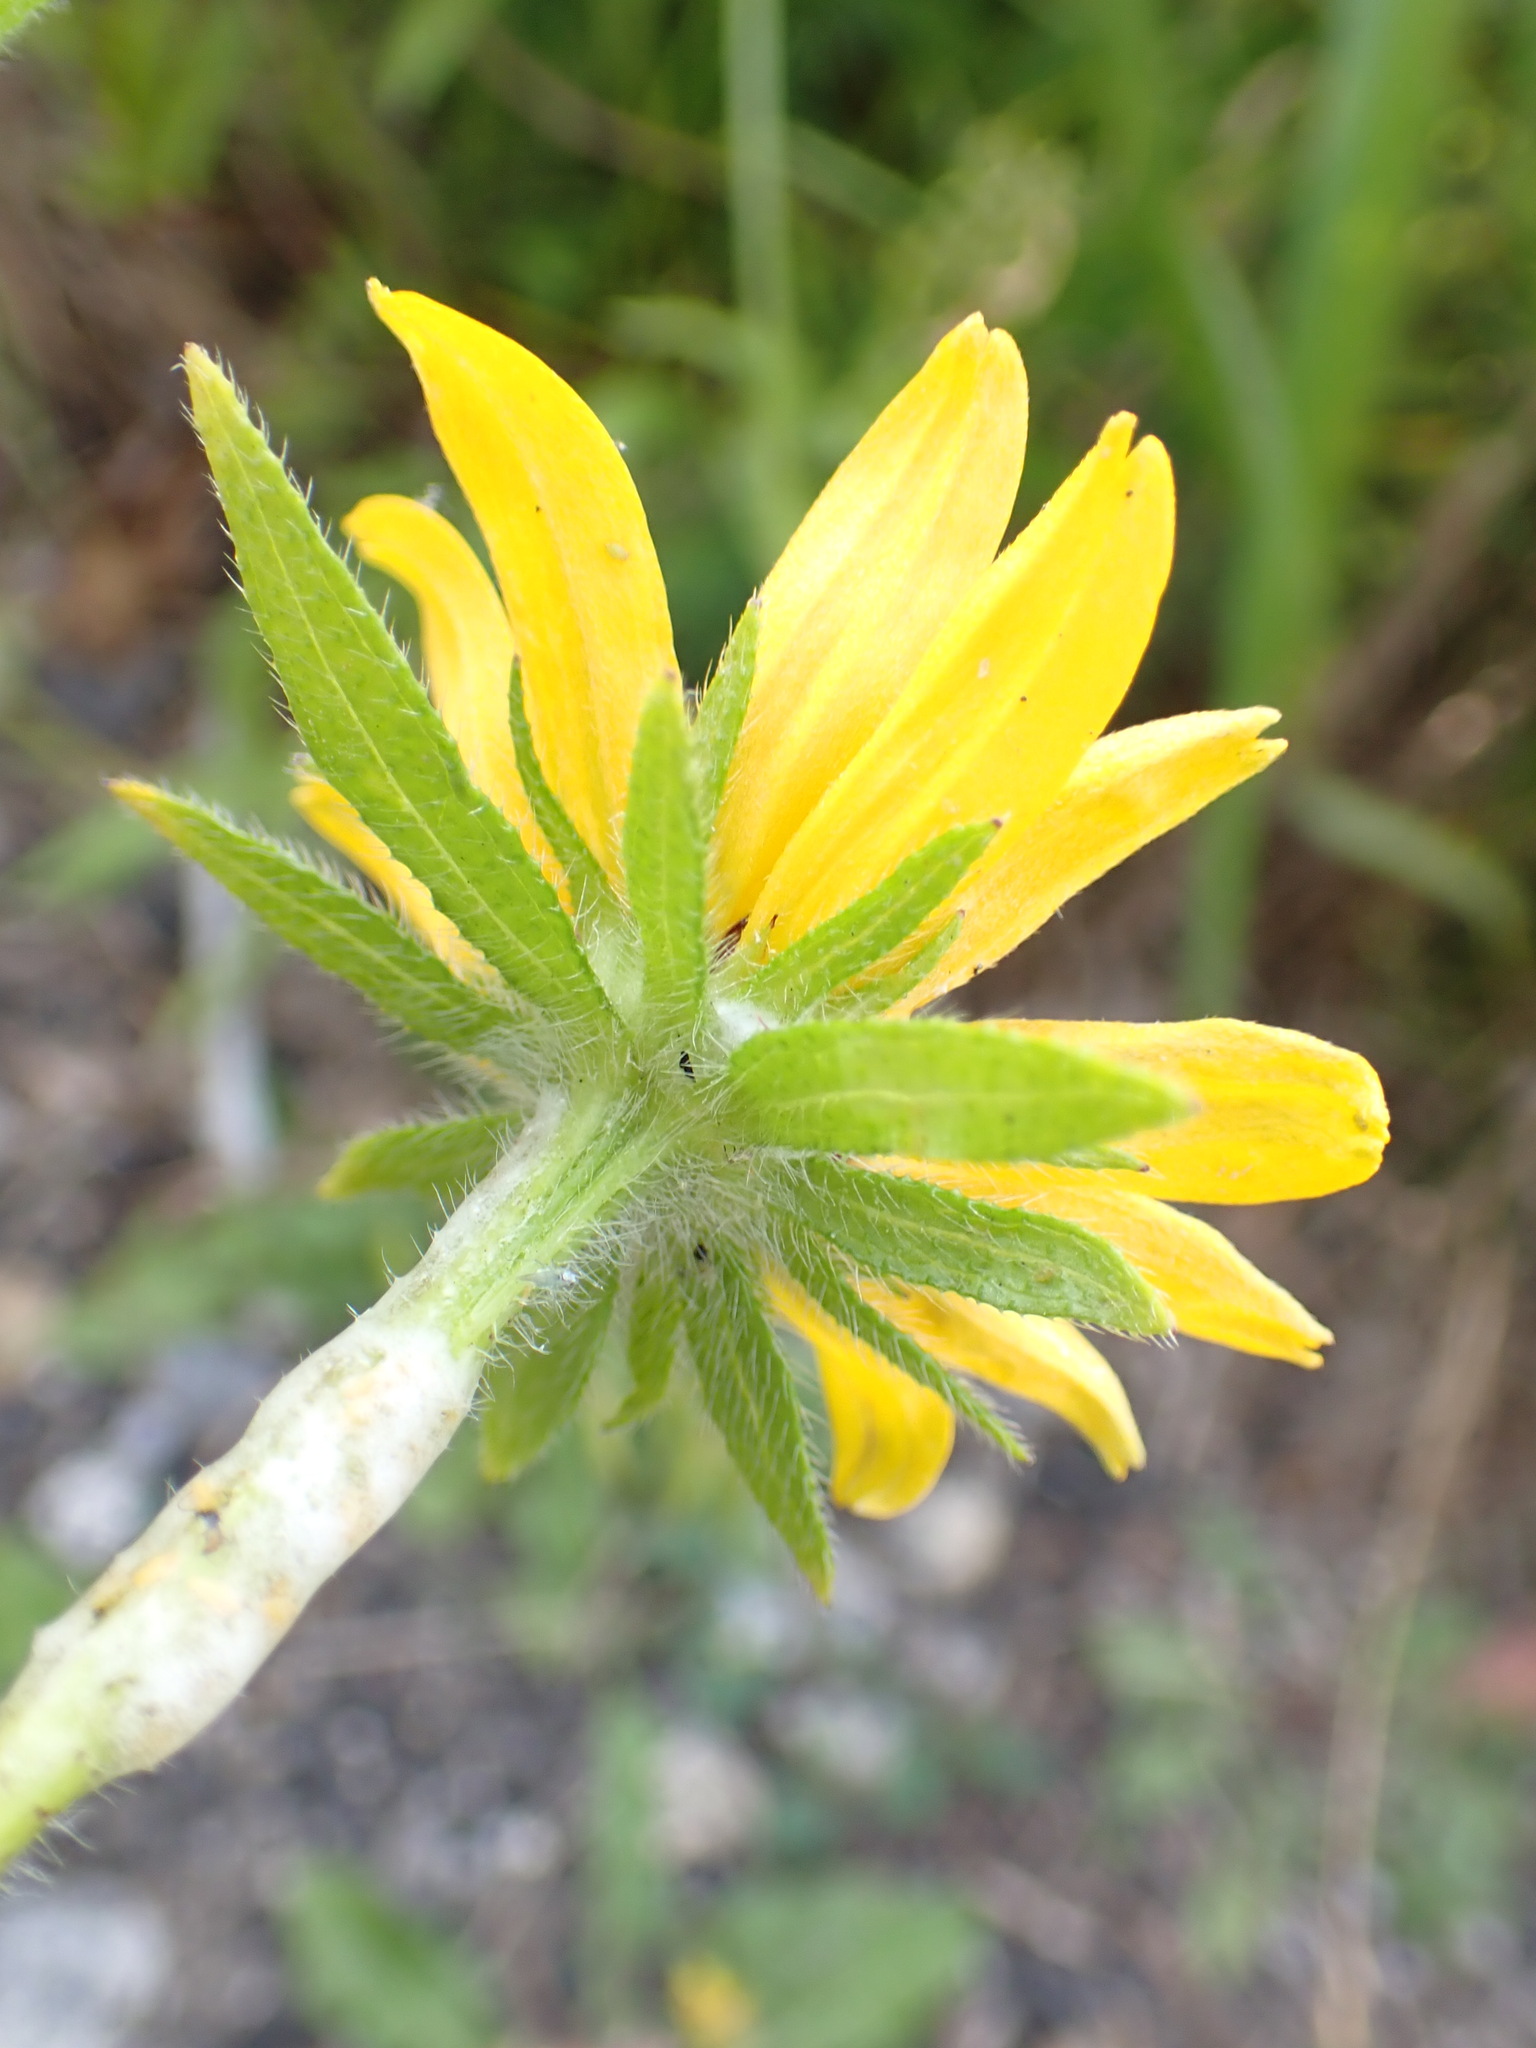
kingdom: Plantae
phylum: Tracheophyta
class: Magnoliopsida
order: Asterales
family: Asteraceae
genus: Rudbeckia
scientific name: Rudbeckia hirta
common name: Black-eyed-susan
